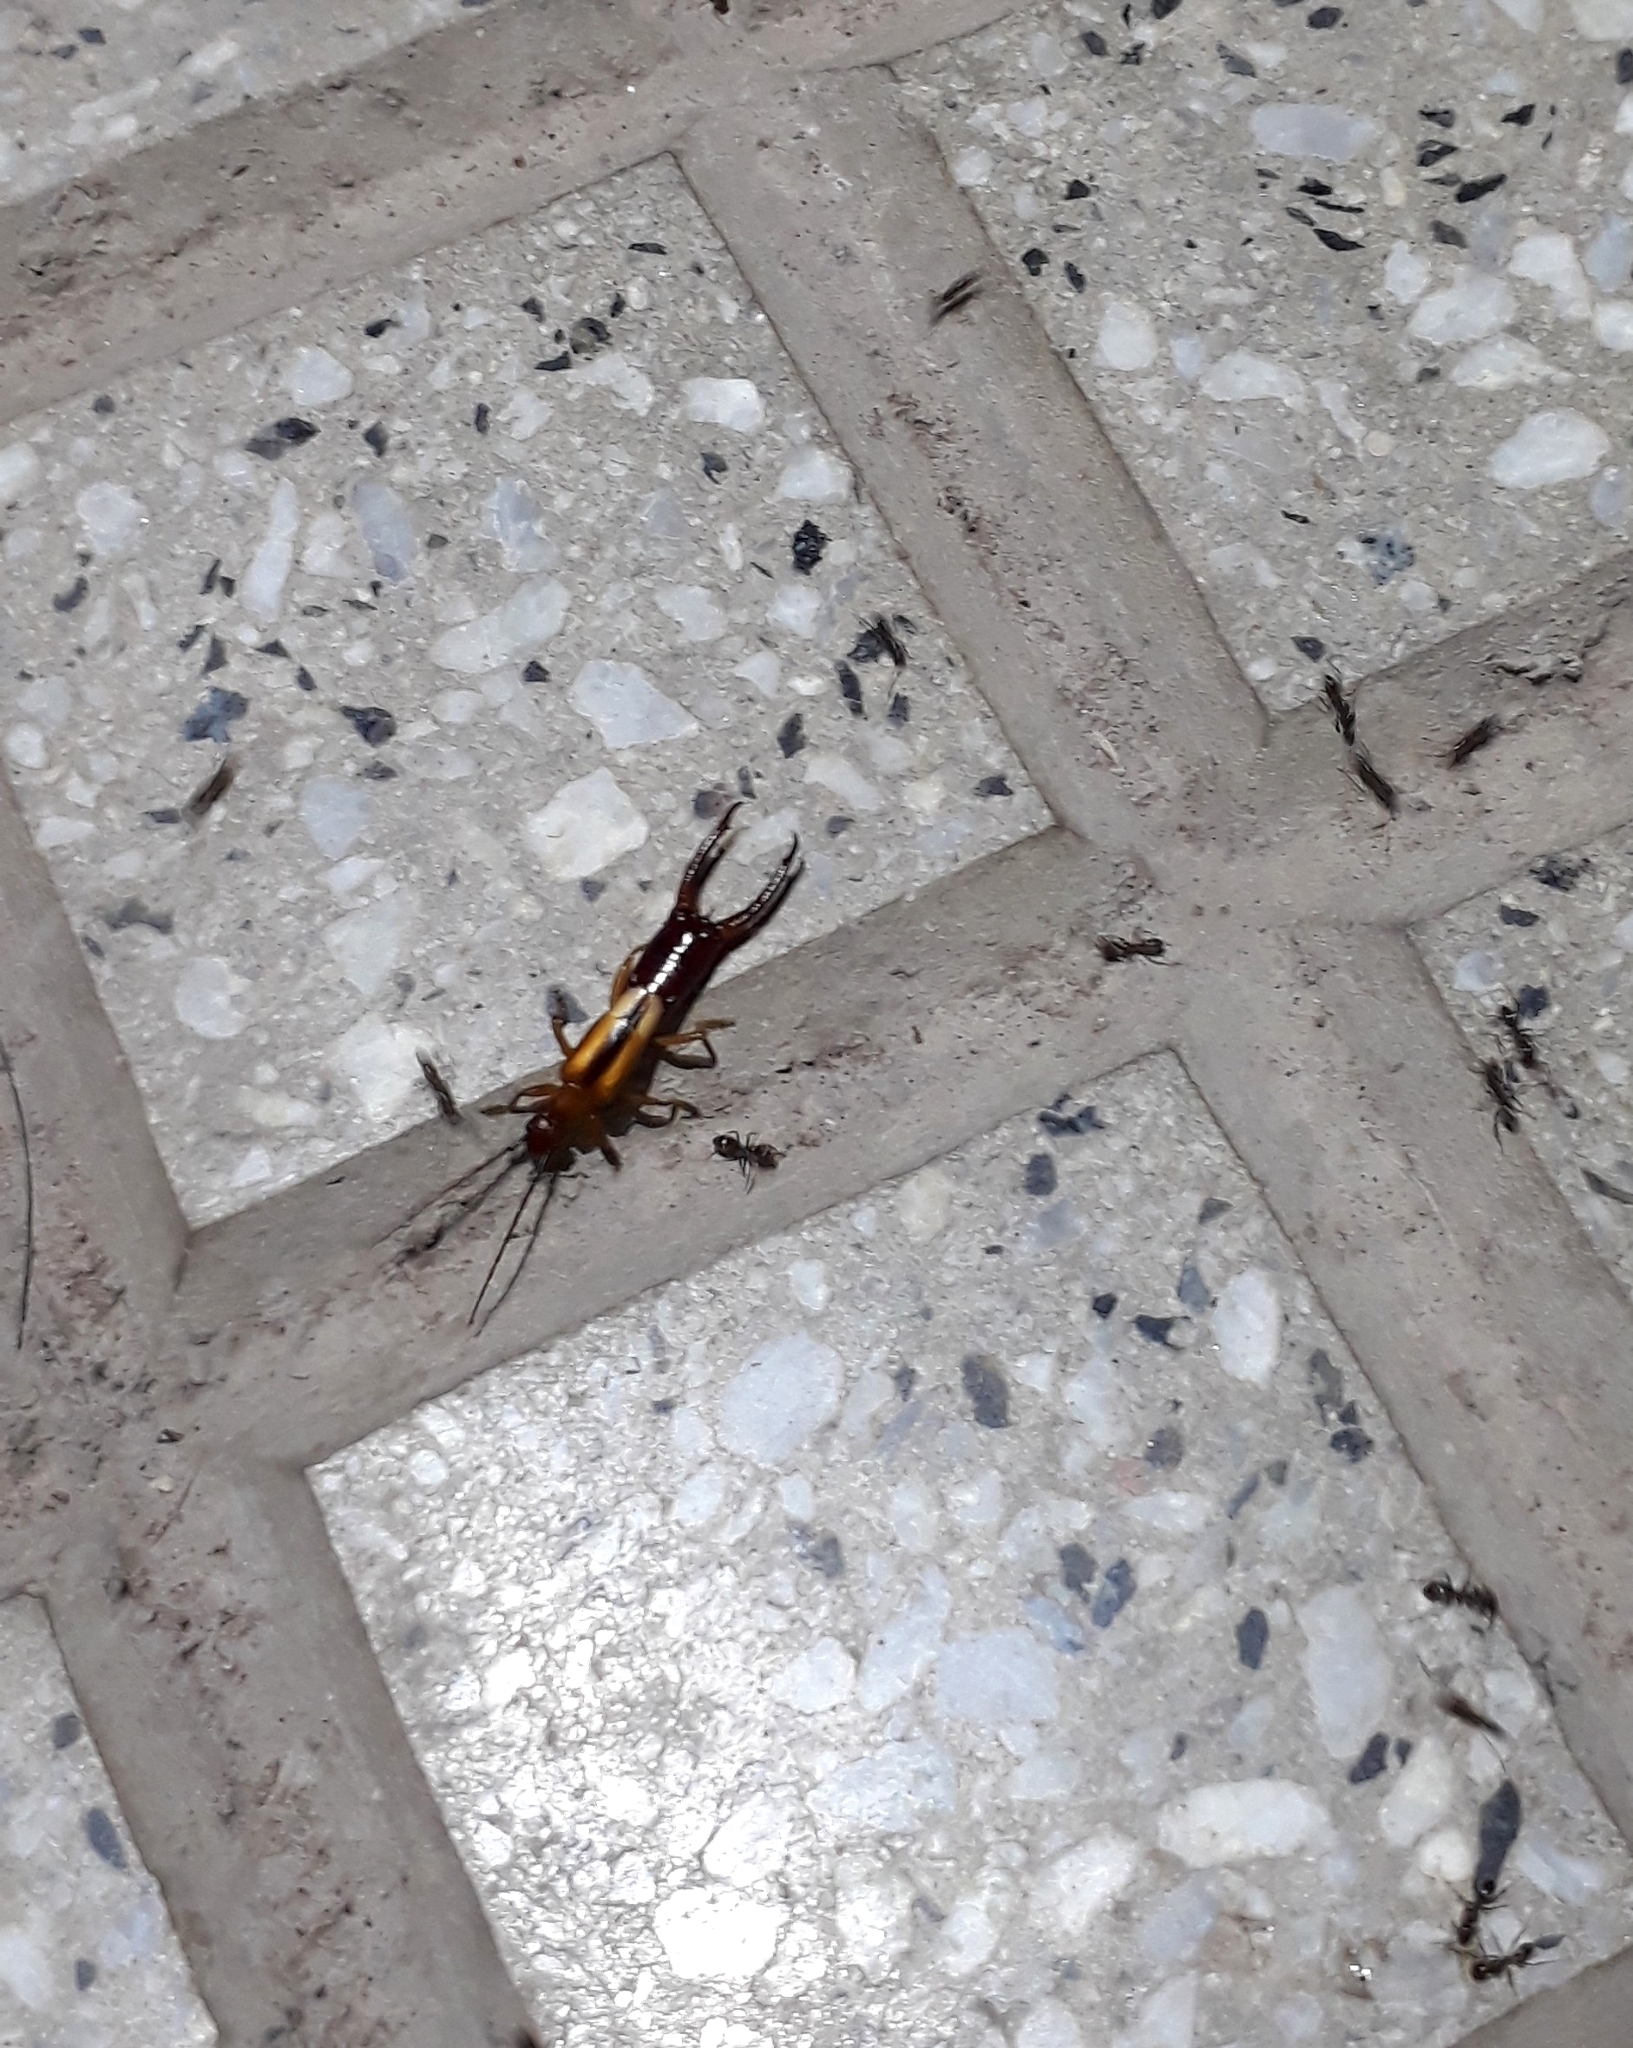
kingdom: Animalia
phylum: Arthropoda
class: Insecta
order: Dermaptera
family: Forficulidae
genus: Doru
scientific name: Doru lineare
